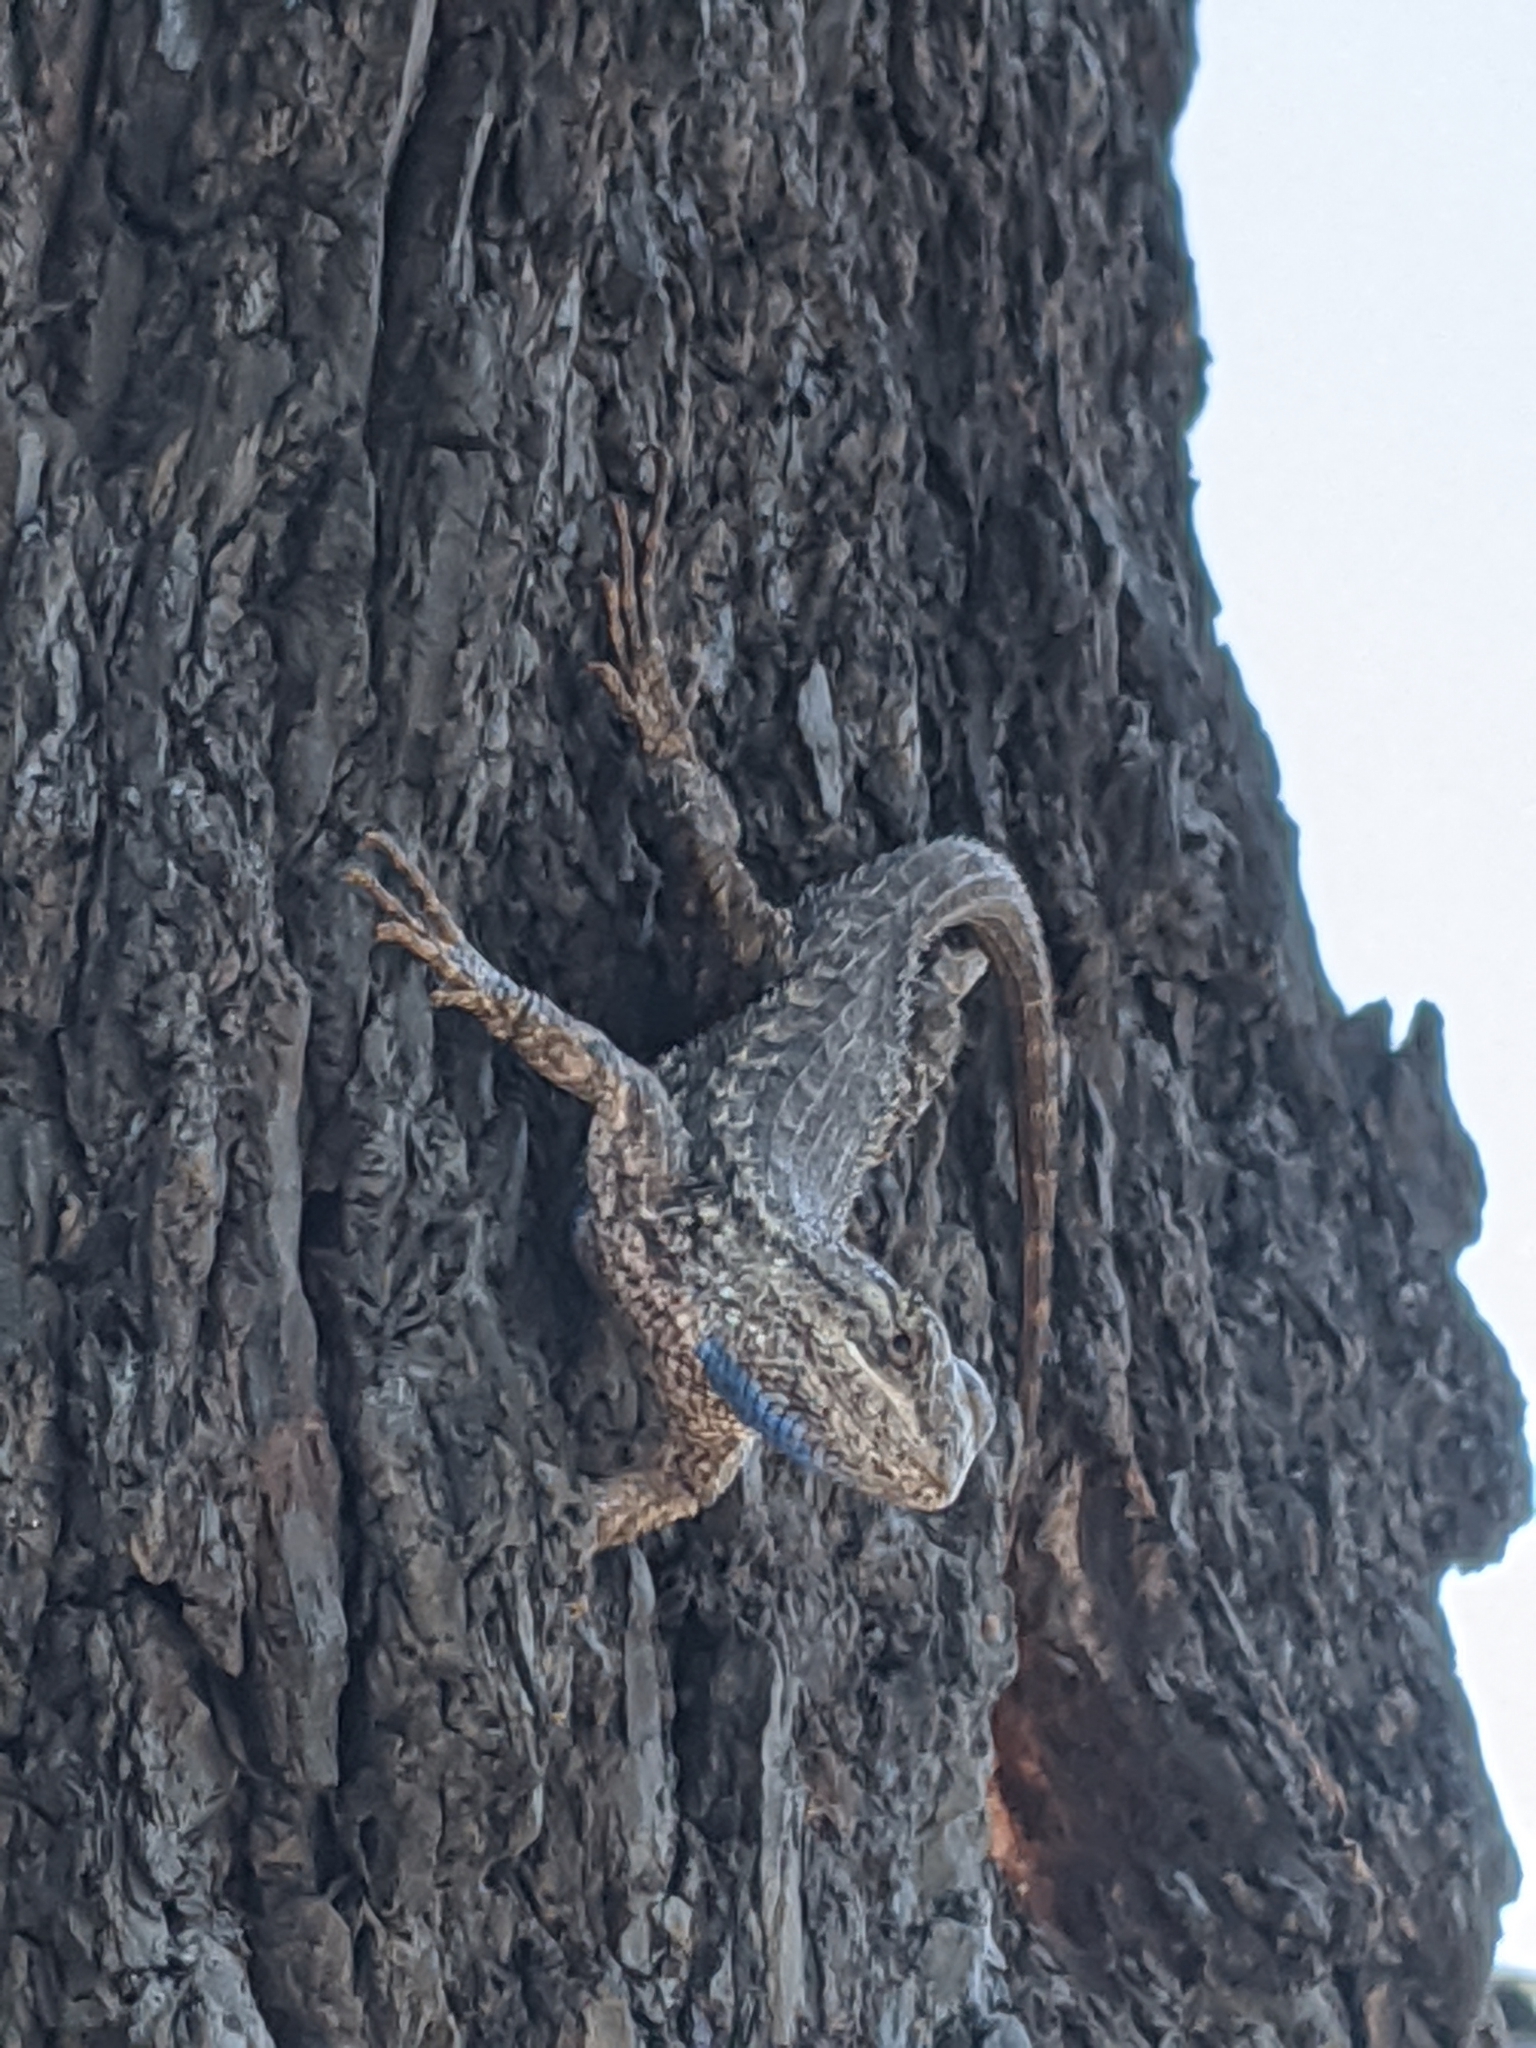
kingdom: Animalia
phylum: Chordata
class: Squamata
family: Phrynosomatidae
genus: Sceloporus
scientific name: Sceloporus occidentalis
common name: Western fence lizard
